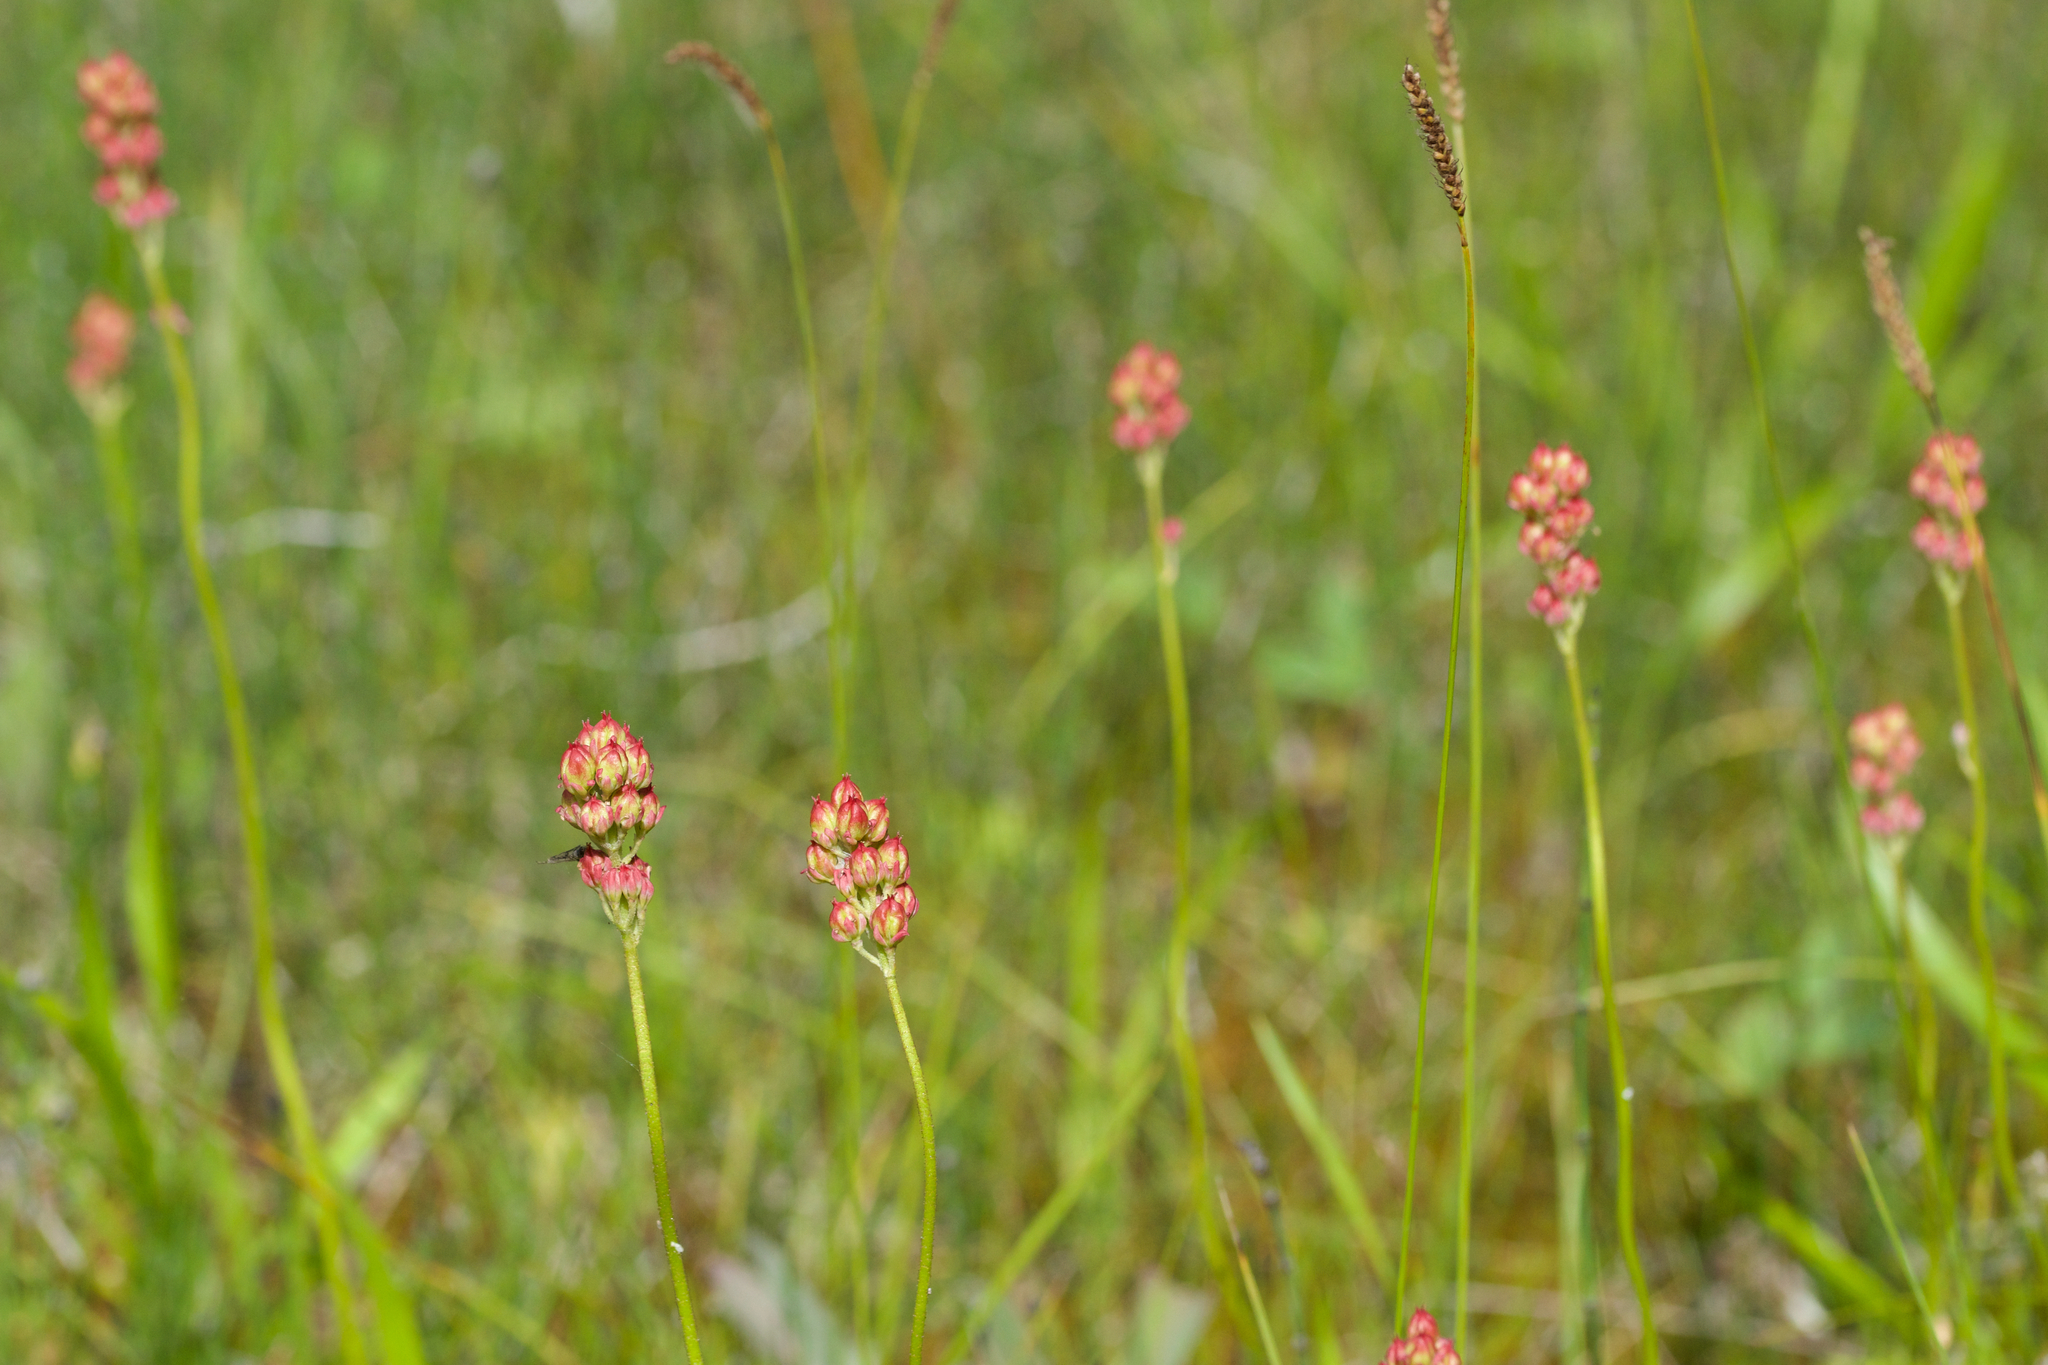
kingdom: Plantae
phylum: Tracheophyta
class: Liliopsida
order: Alismatales
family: Tofieldiaceae
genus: Triantha
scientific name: Triantha glutinosa
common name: Glutinous tofieldia
